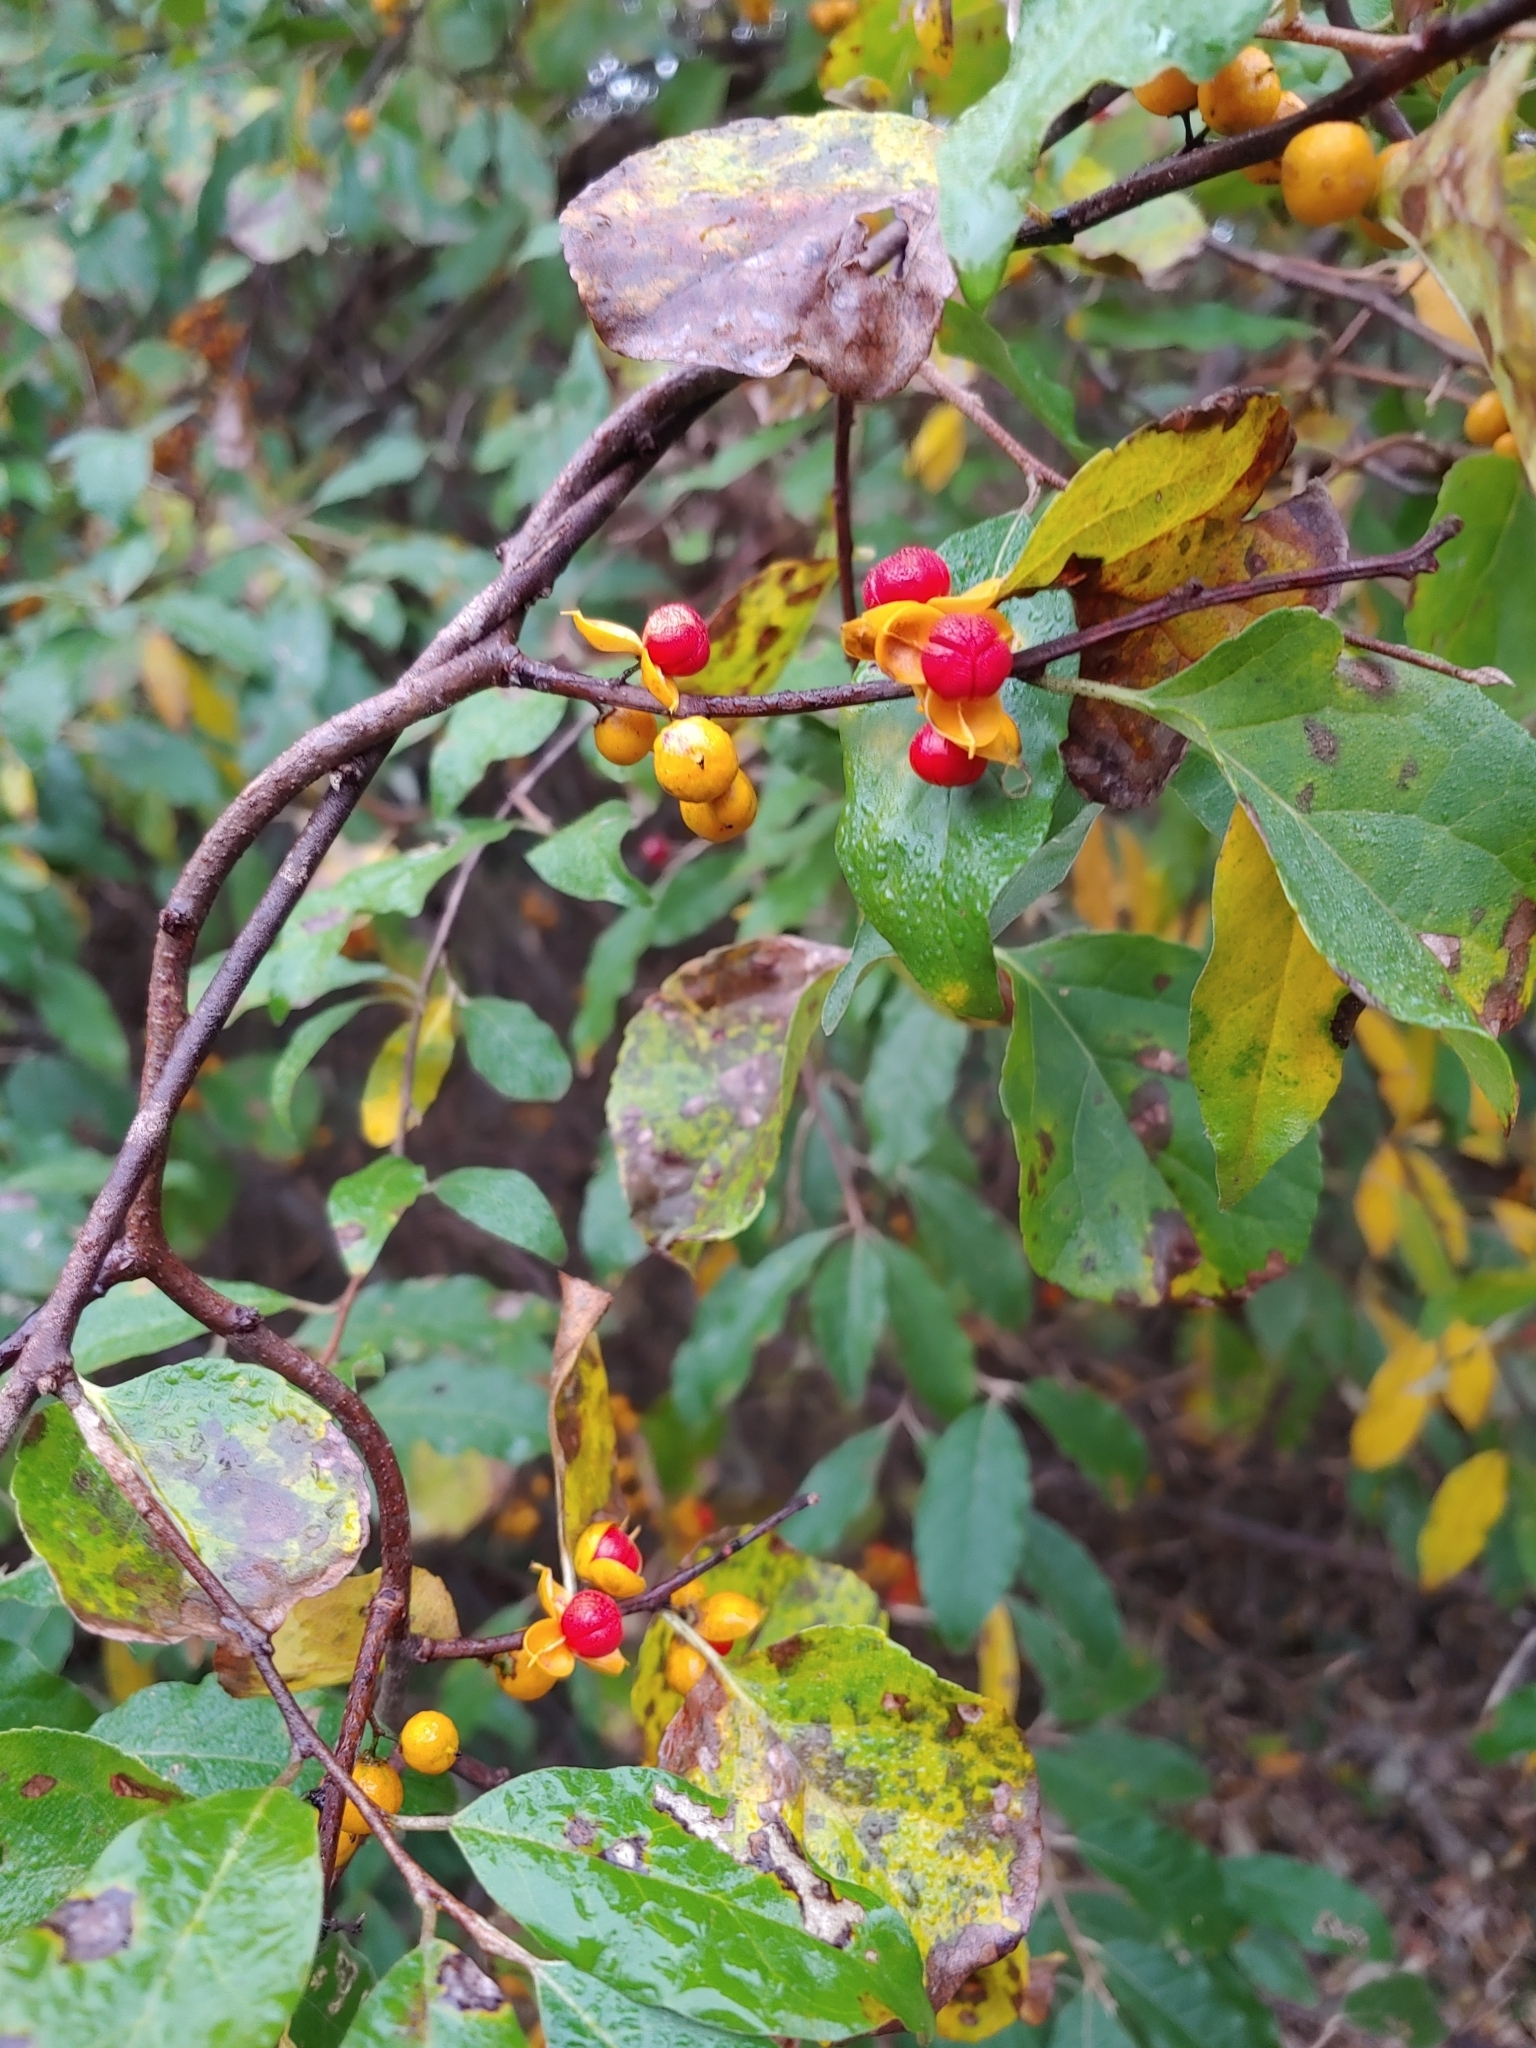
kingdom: Plantae
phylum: Tracheophyta
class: Magnoliopsida
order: Celastrales
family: Celastraceae
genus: Celastrus
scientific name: Celastrus orbiculatus
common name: Oriental bittersweet
